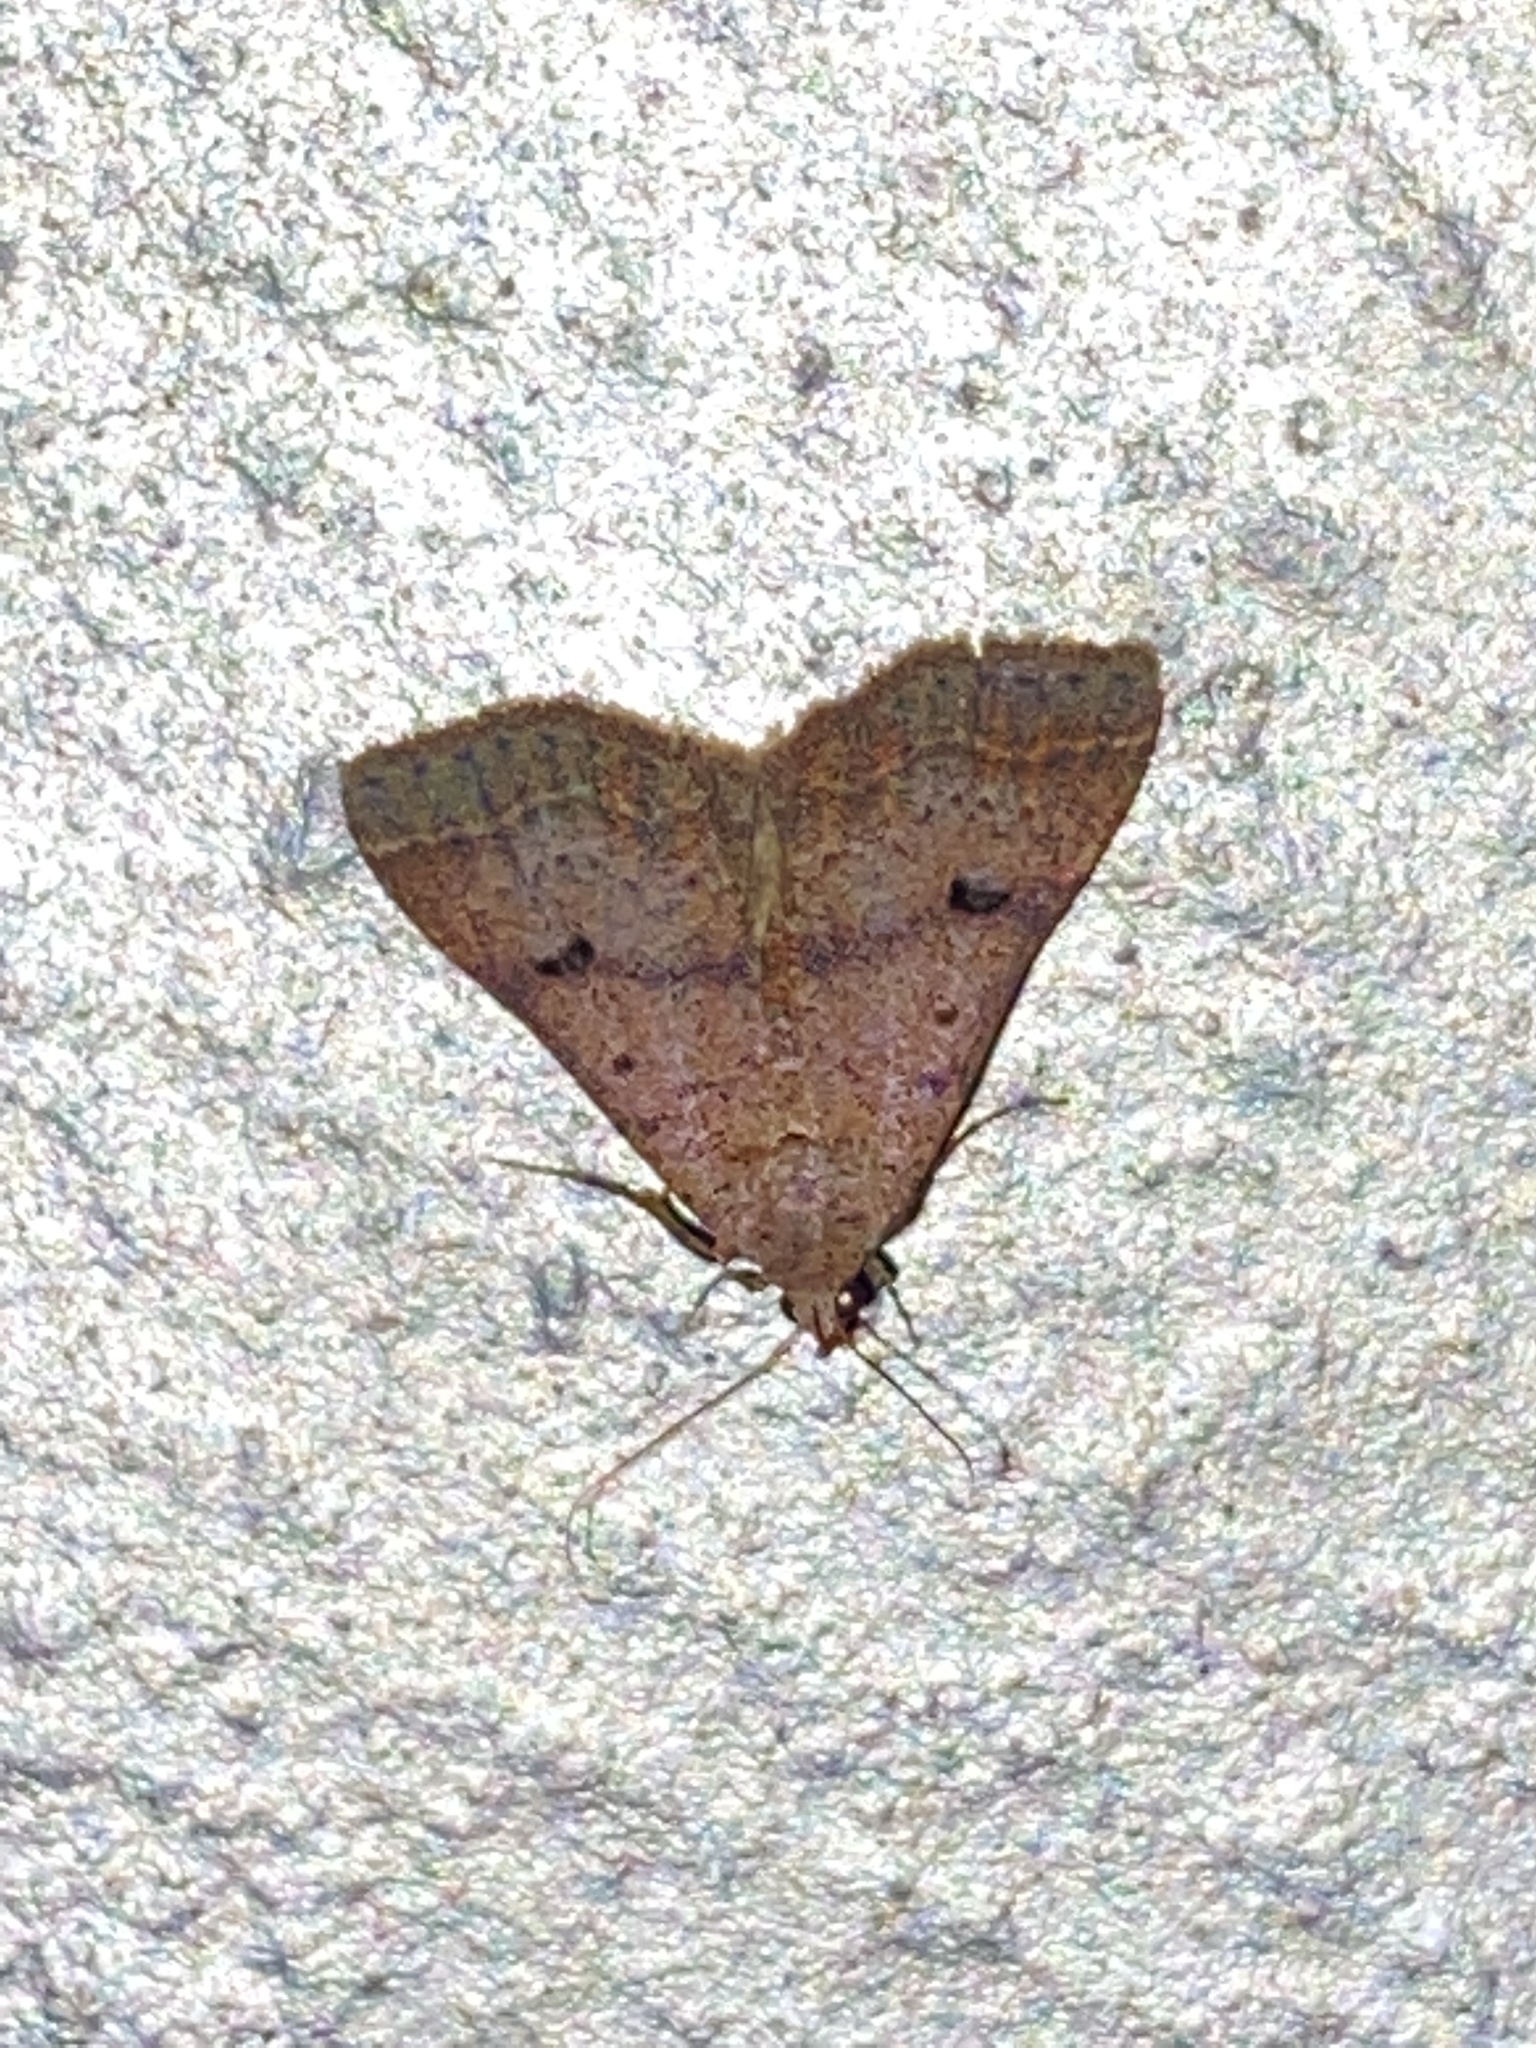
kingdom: Animalia
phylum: Arthropoda
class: Insecta
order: Lepidoptera
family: Erebidae
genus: Bleptina
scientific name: Bleptina caradrinalis
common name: Bent-winged owlet
